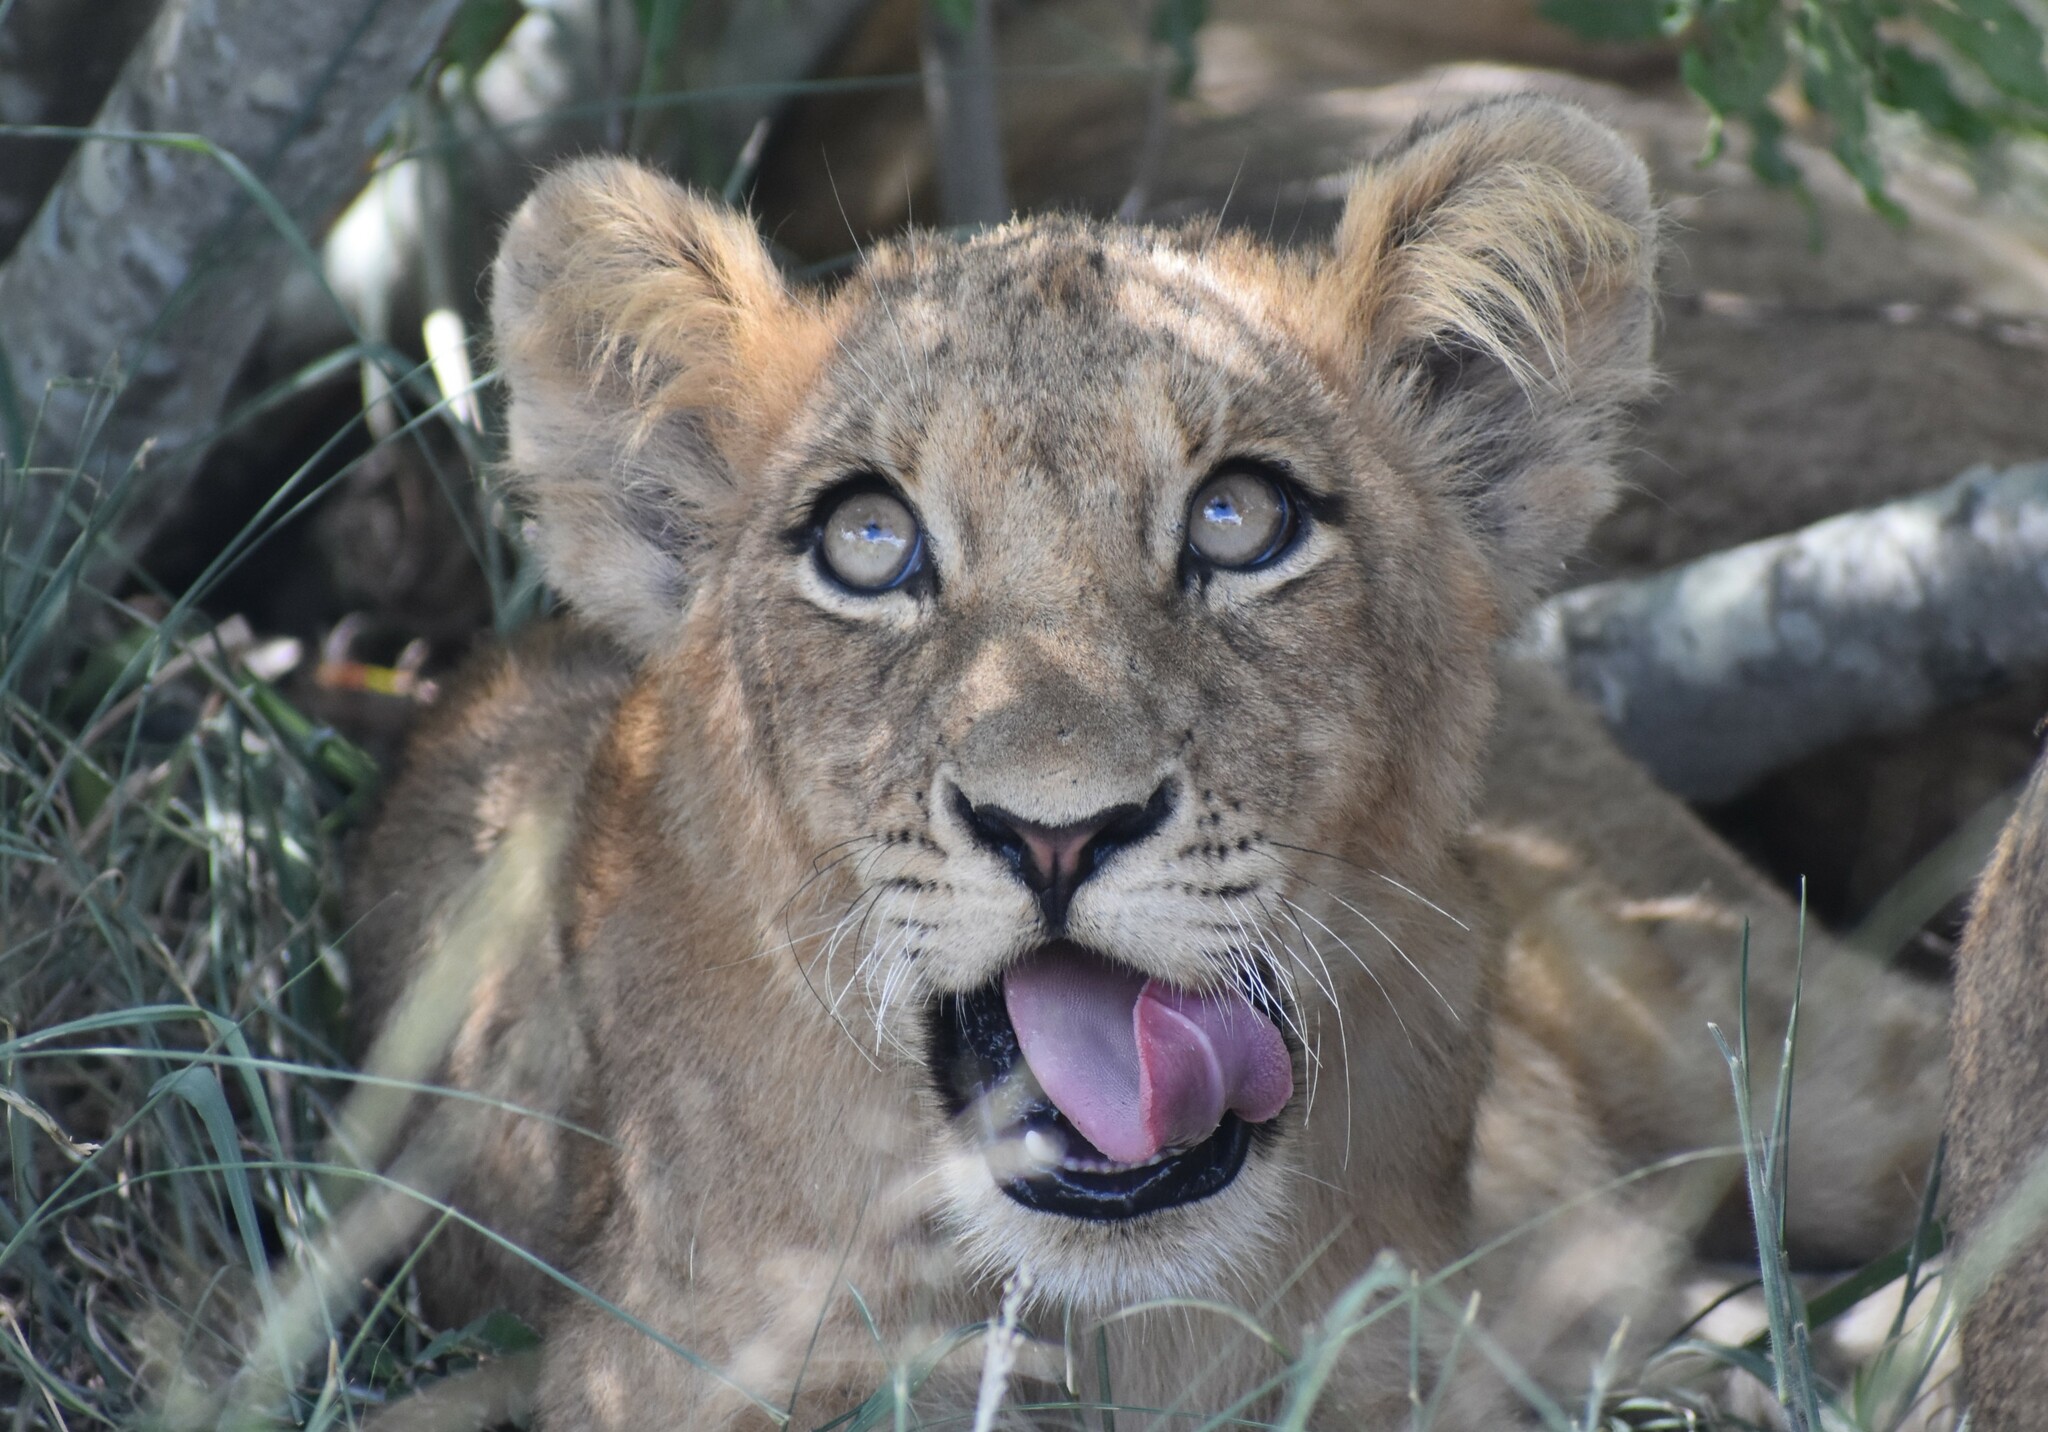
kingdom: Animalia
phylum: Chordata
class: Mammalia
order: Carnivora
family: Felidae
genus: Panthera
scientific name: Panthera leo
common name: Lion
